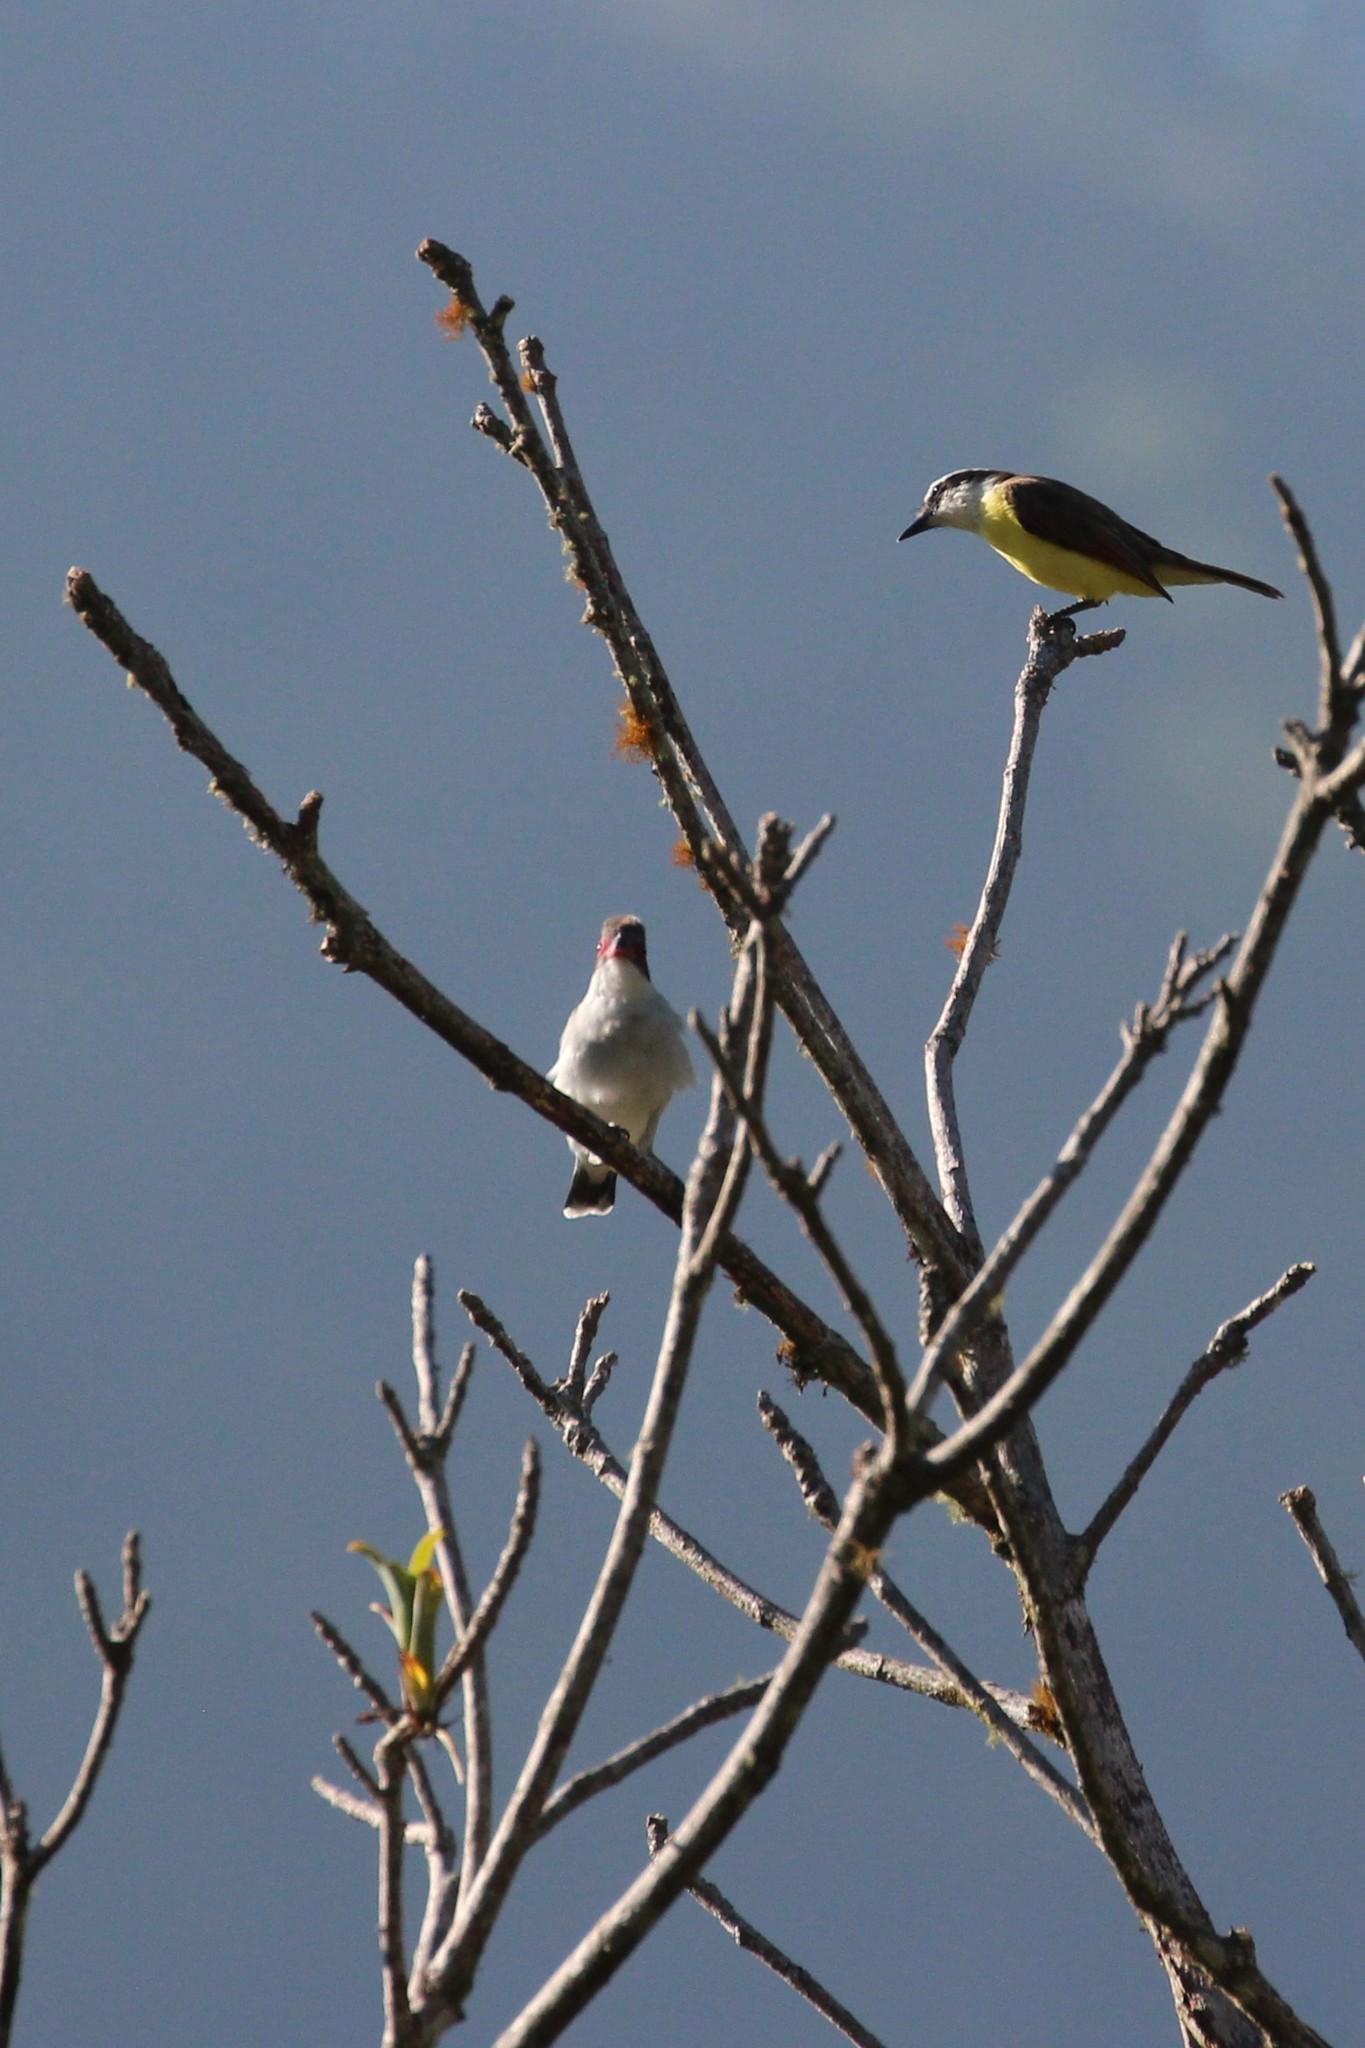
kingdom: Animalia
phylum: Chordata
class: Aves
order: Passeriformes
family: Tyrannidae
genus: Pitangus
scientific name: Pitangus sulphuratus
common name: Great kiskadee
